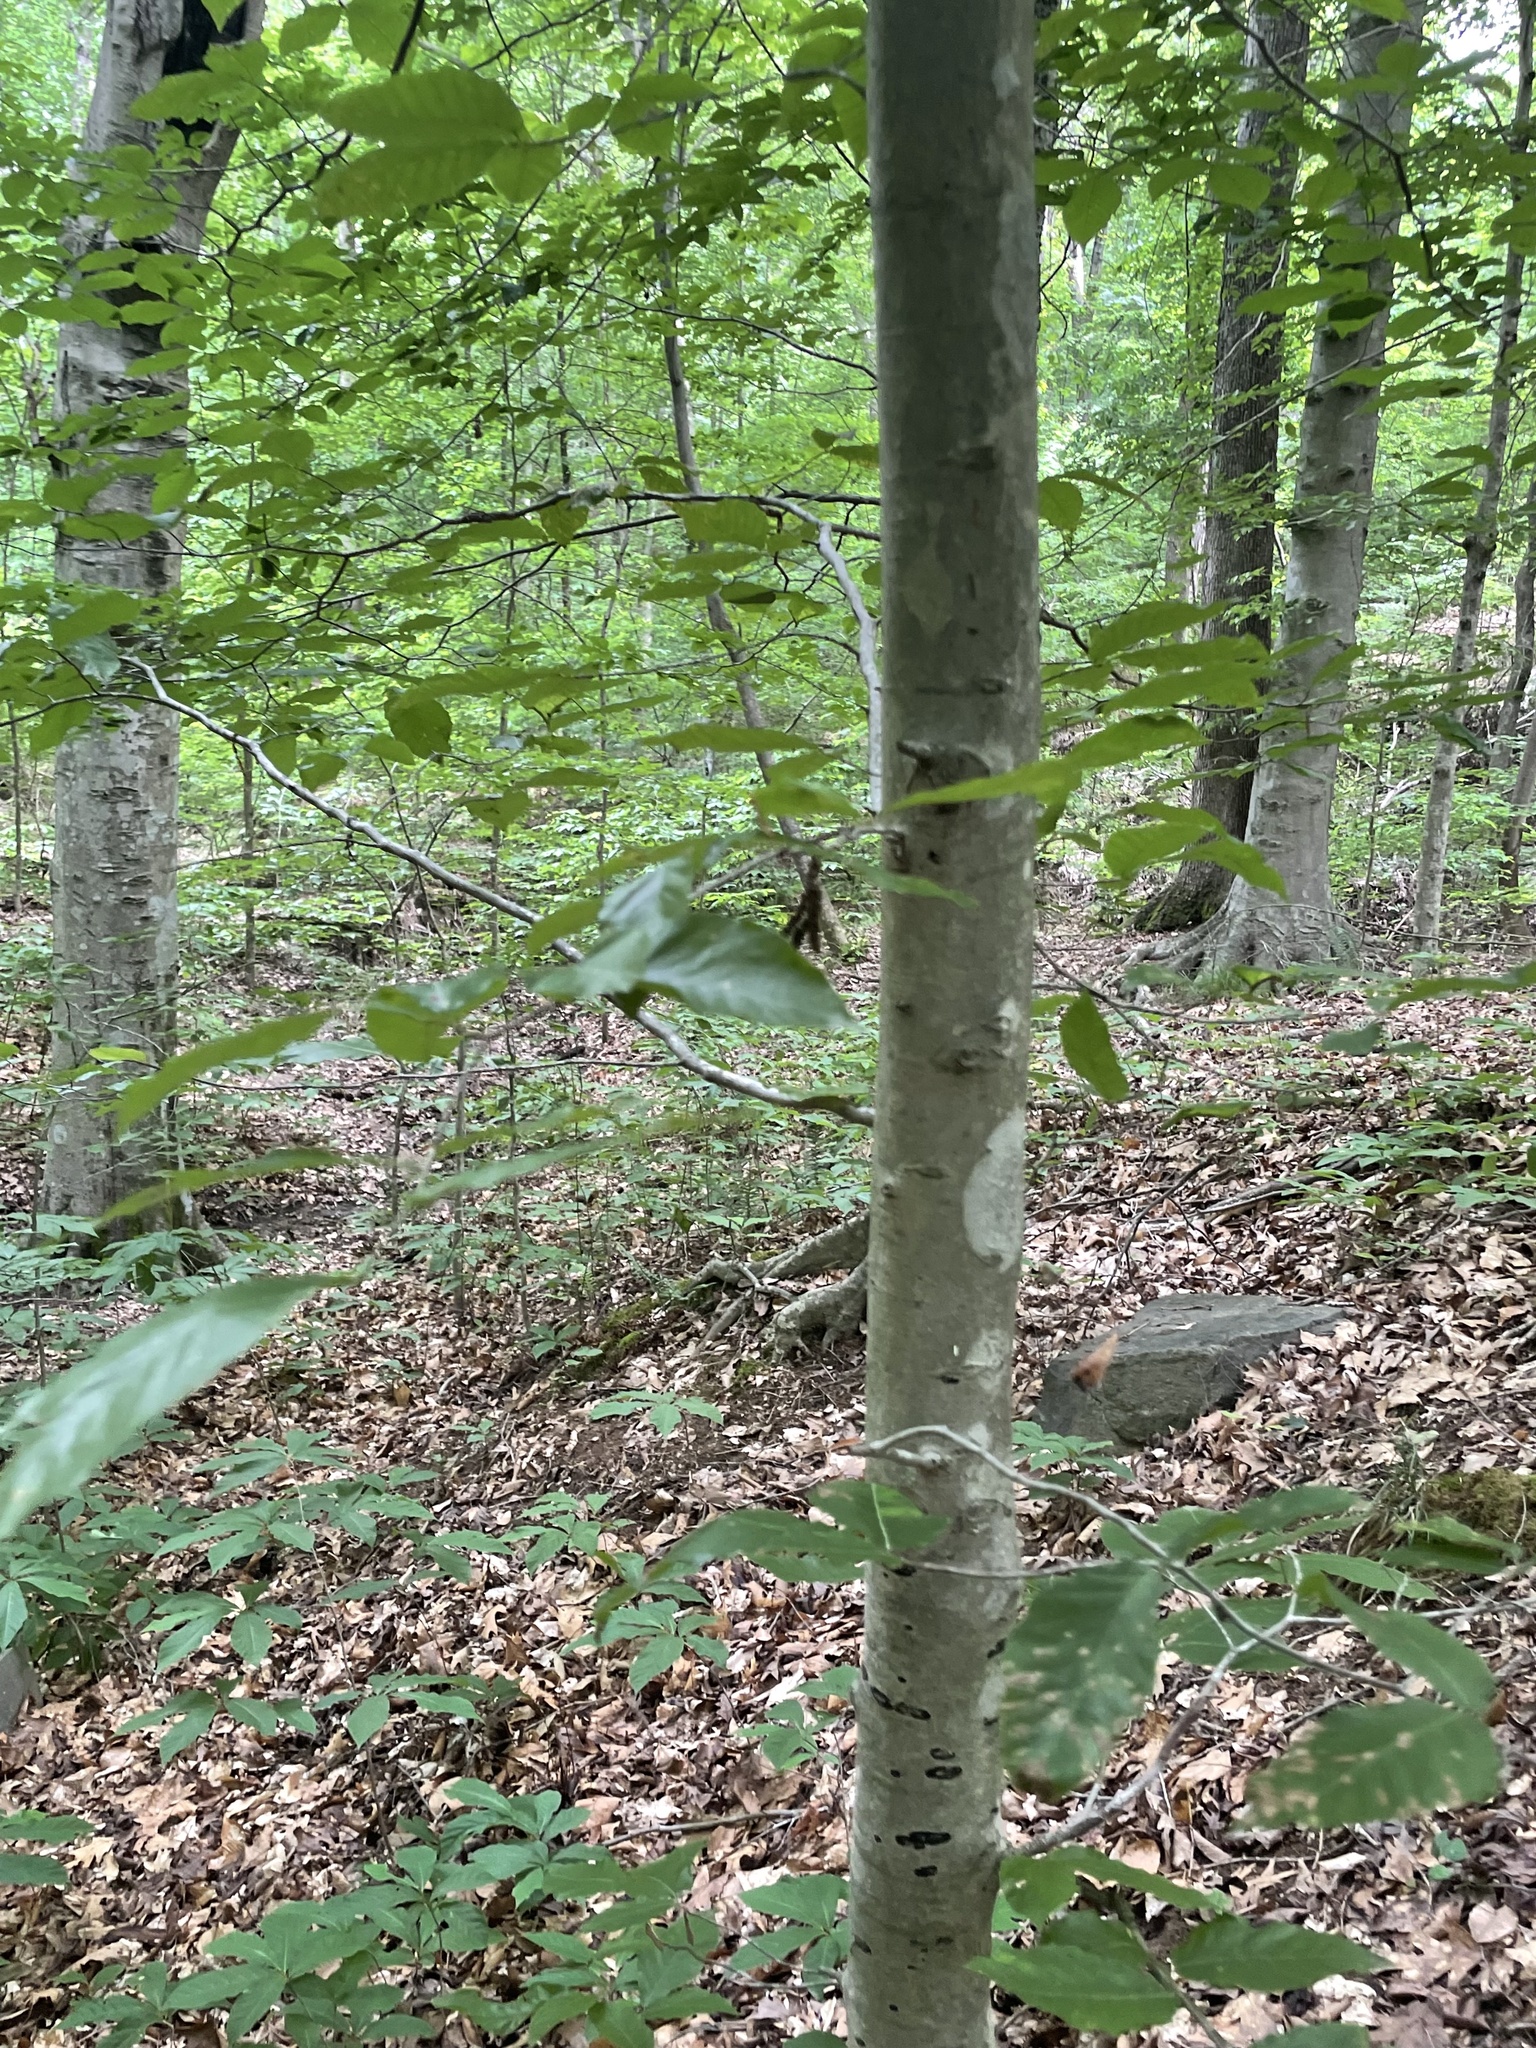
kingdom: Plantae
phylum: Tracheophyta
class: Magnoliopsida
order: Fagales
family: Fagaceae
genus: Fagus
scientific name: Fagus grandifolia
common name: American beech
